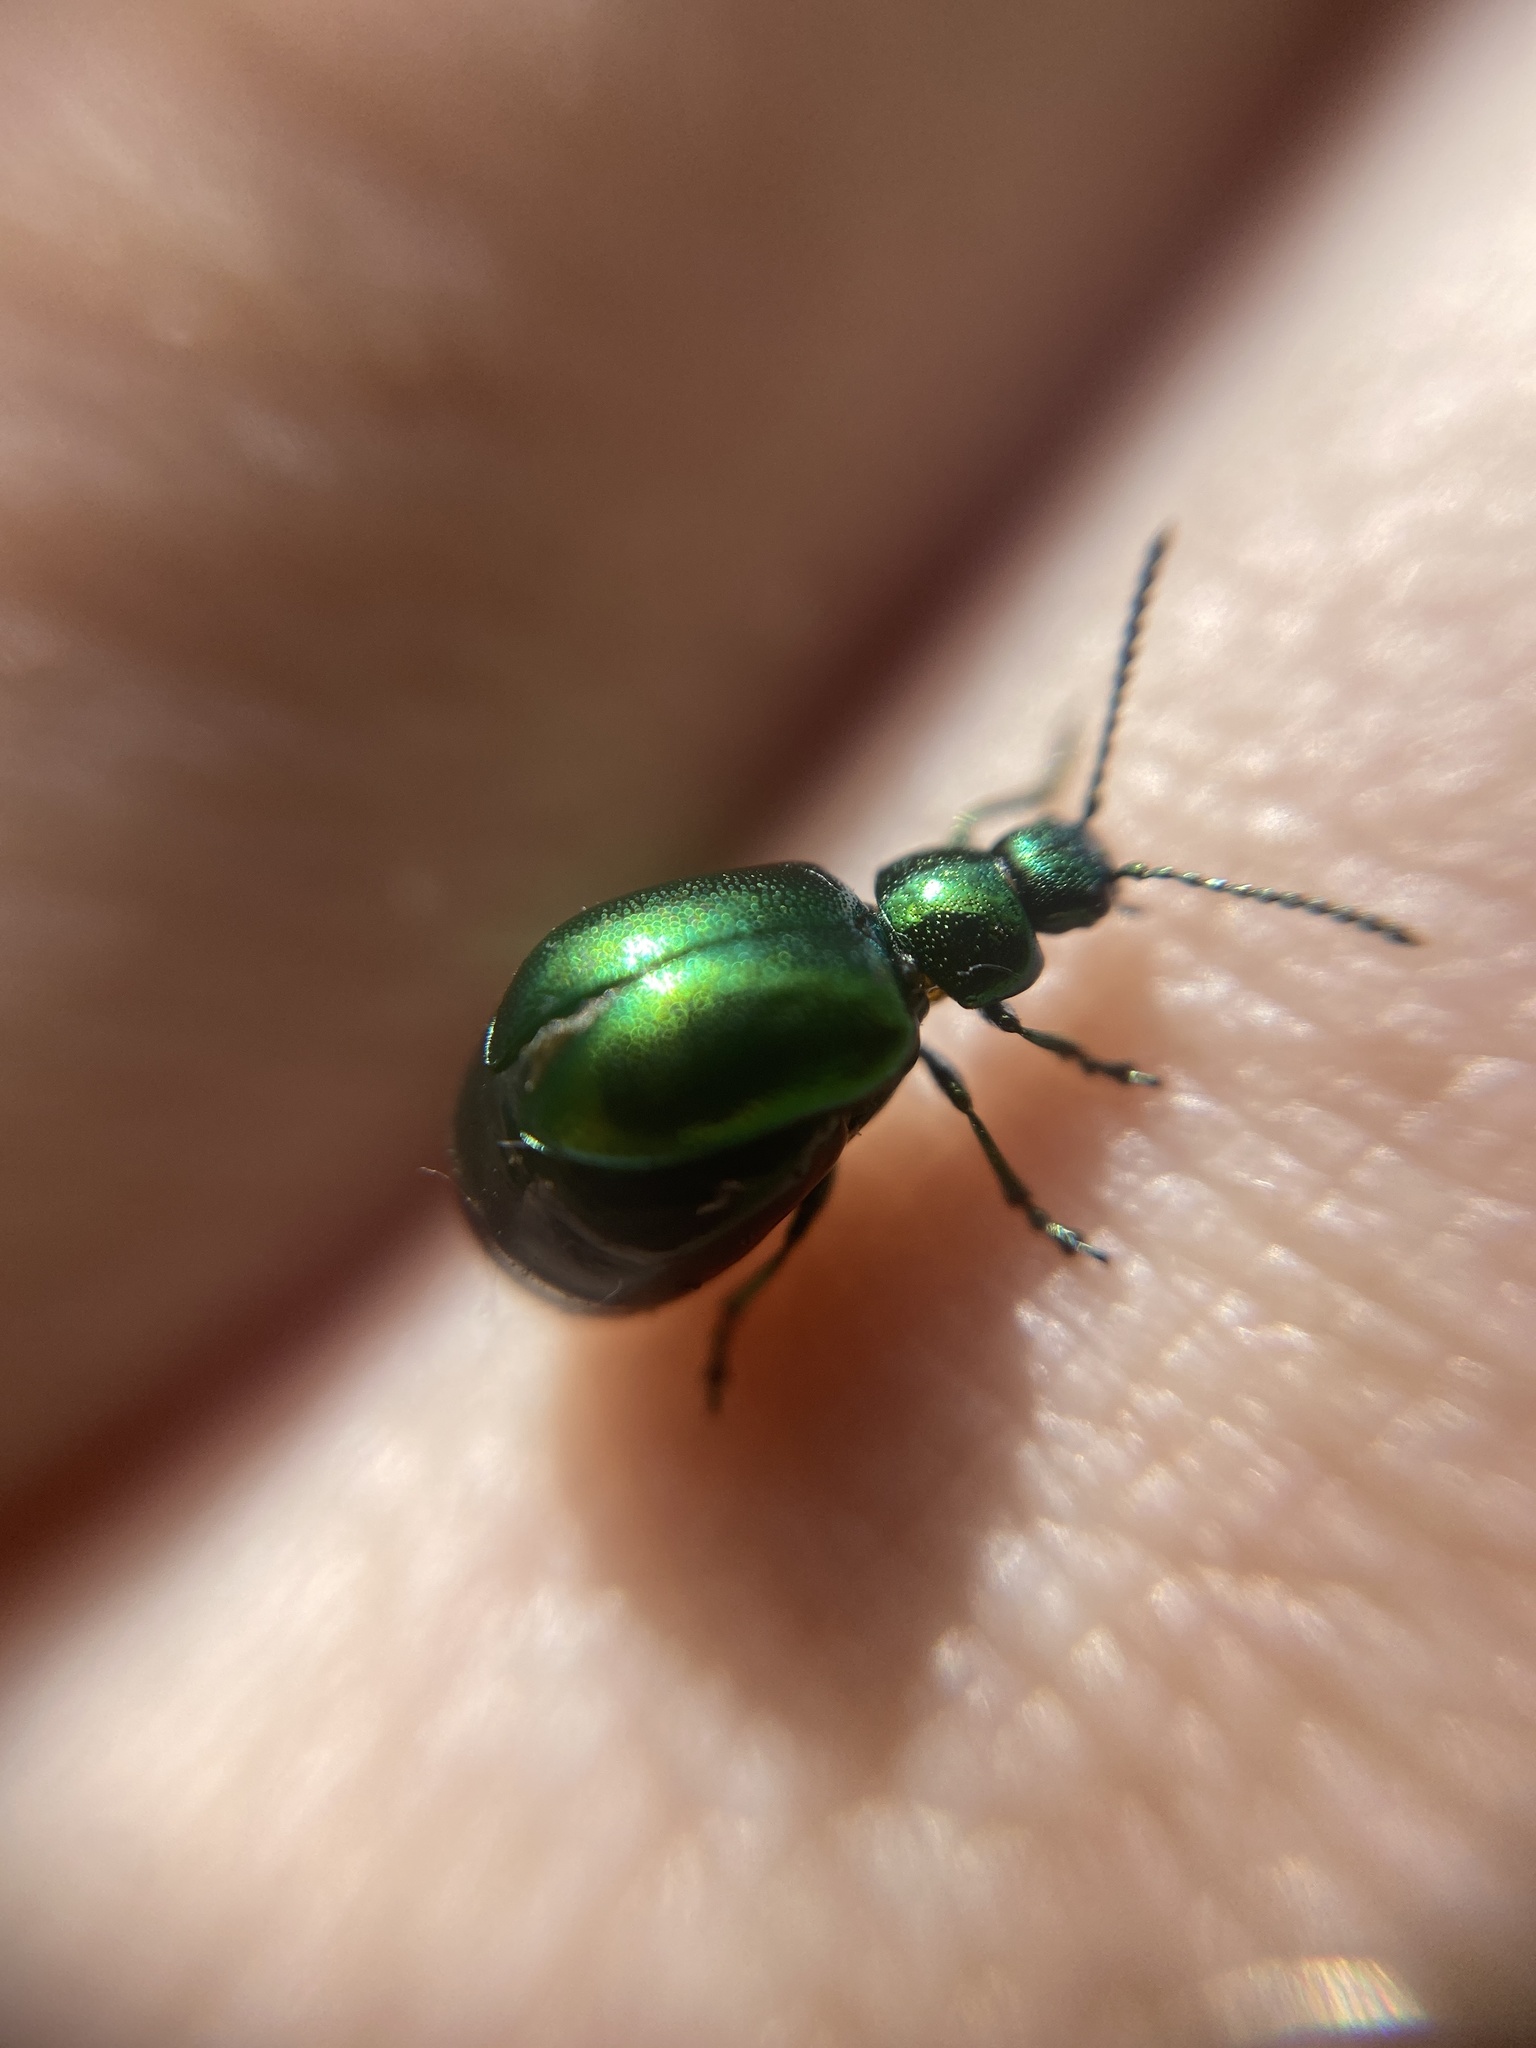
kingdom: Animalia
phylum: Arthropoda
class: Insecta
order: Coleoptera
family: Chrysomelidae
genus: Gastrophysa
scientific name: Gastrophysa viridula
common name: Green dock beetle
